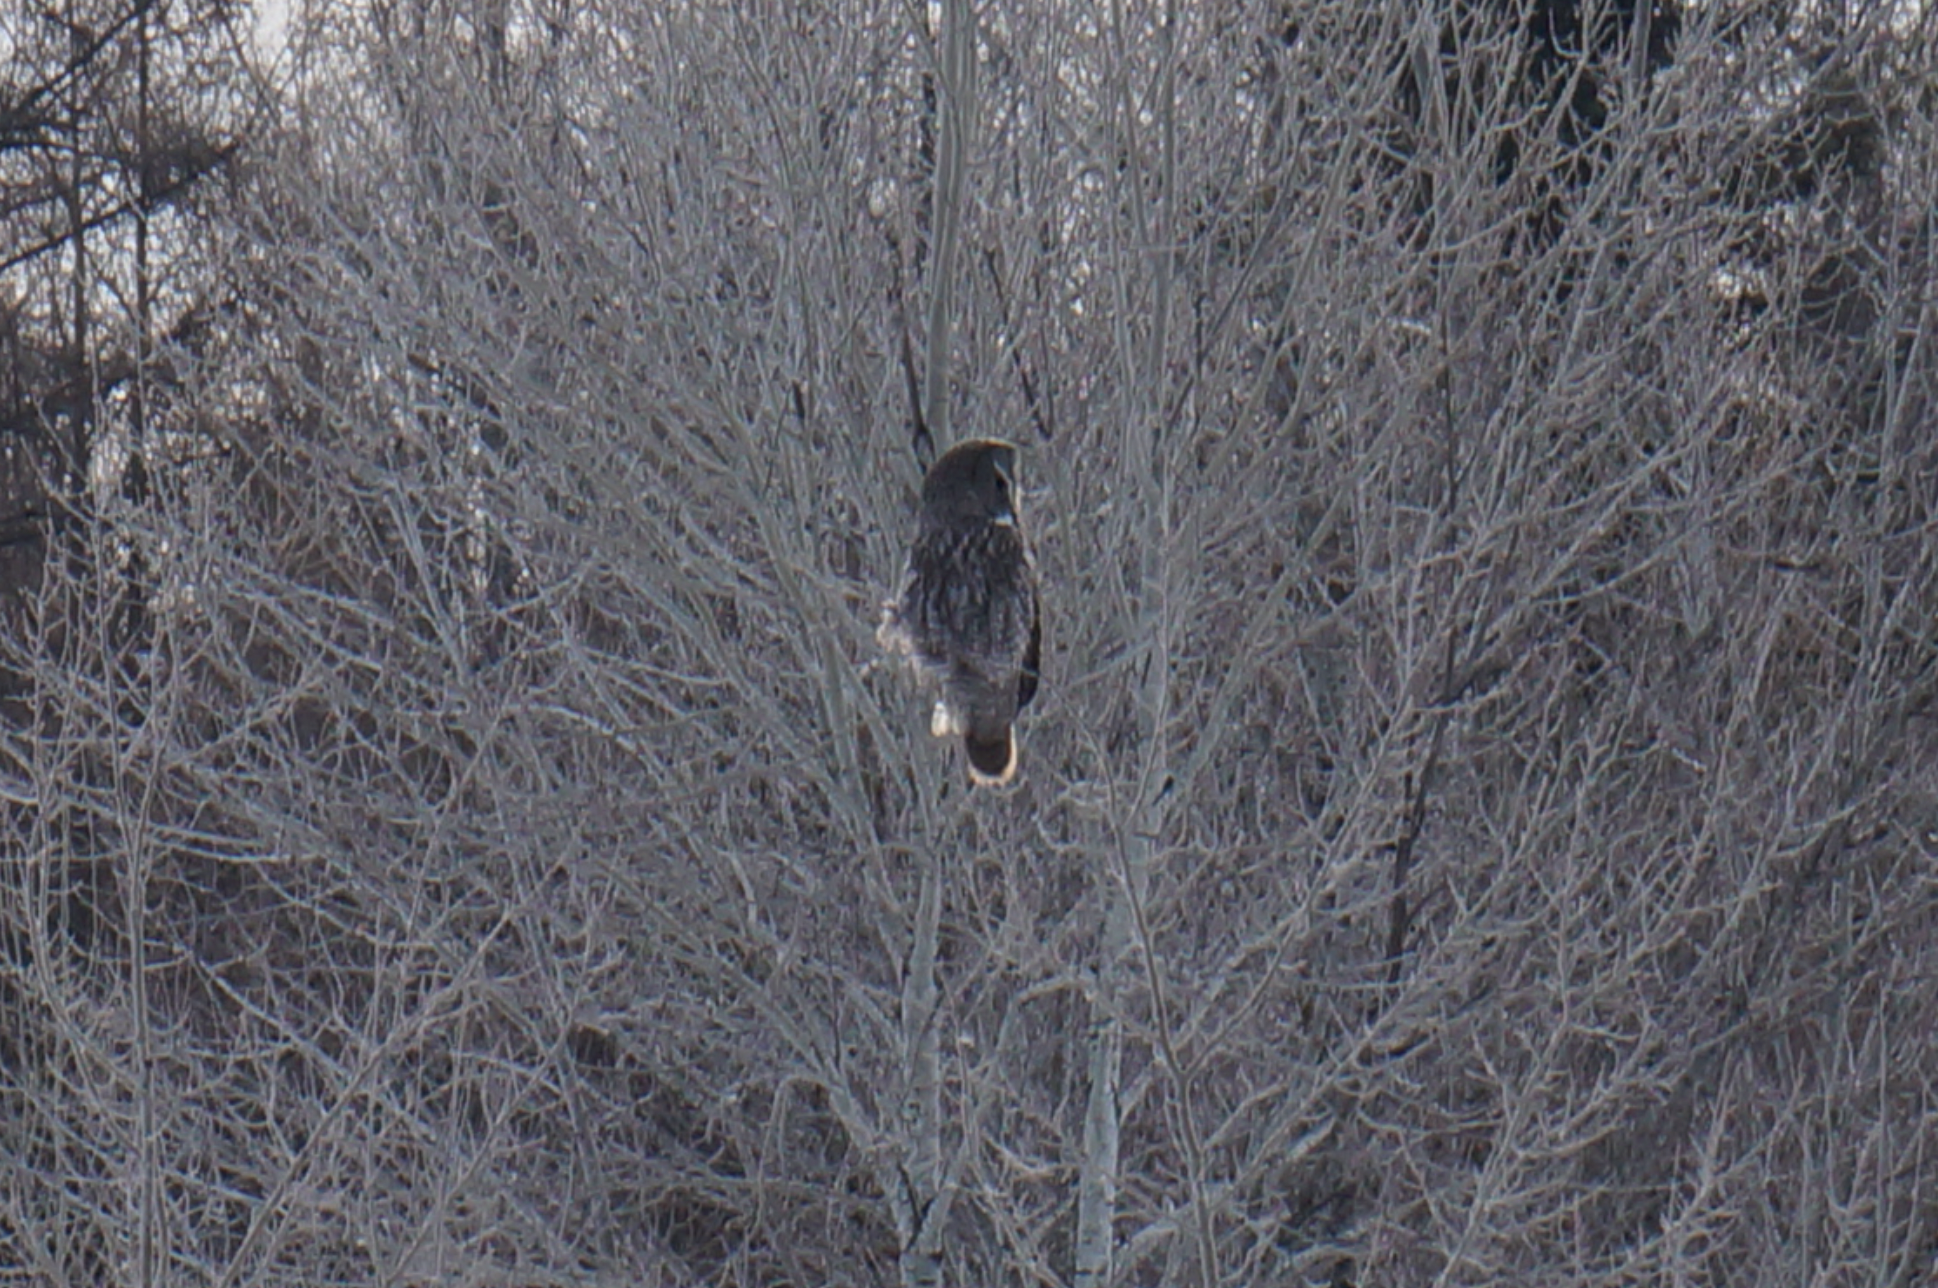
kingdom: Animalia
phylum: Chordata
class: Aves
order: Strigiformes
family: Strigidae
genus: Strix
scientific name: Strix nebulosa
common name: Great grey owl
